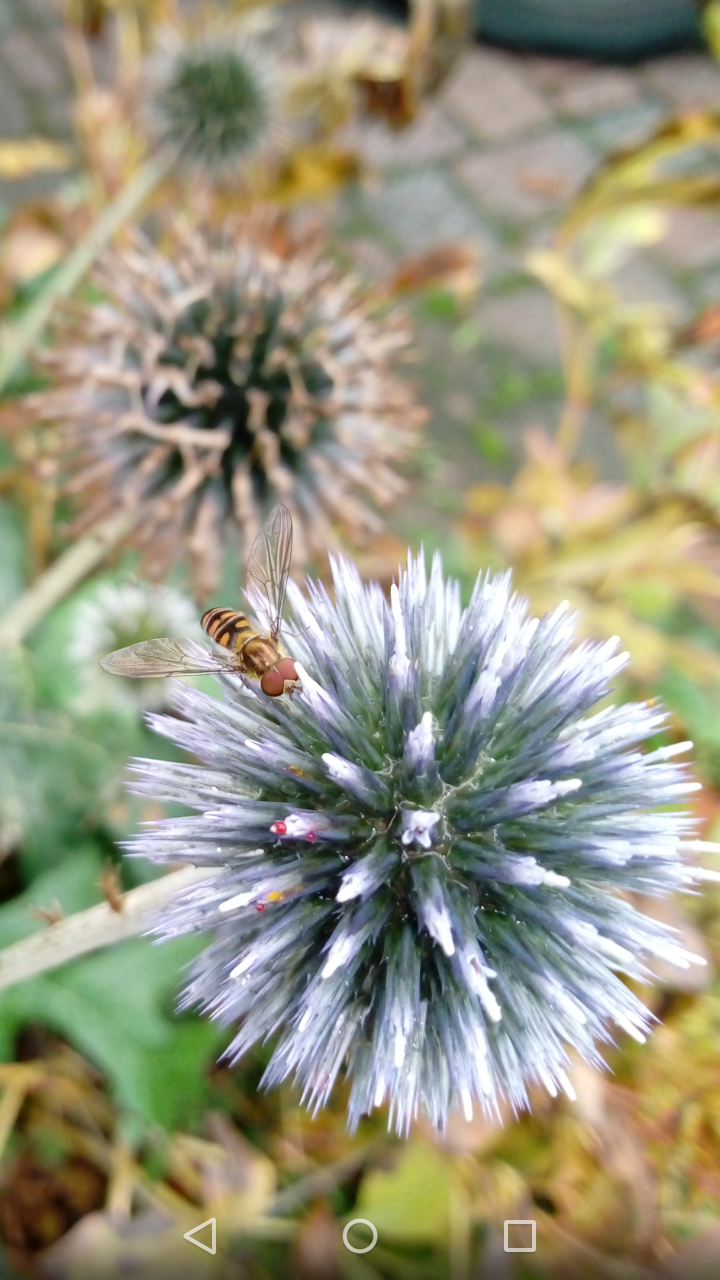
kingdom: Animalia
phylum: Arthropoda
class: Insecta
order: Diptera
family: Syrphidae
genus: Episyrphus
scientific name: Episyrphus balteatus
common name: Marmalade hoverfly
